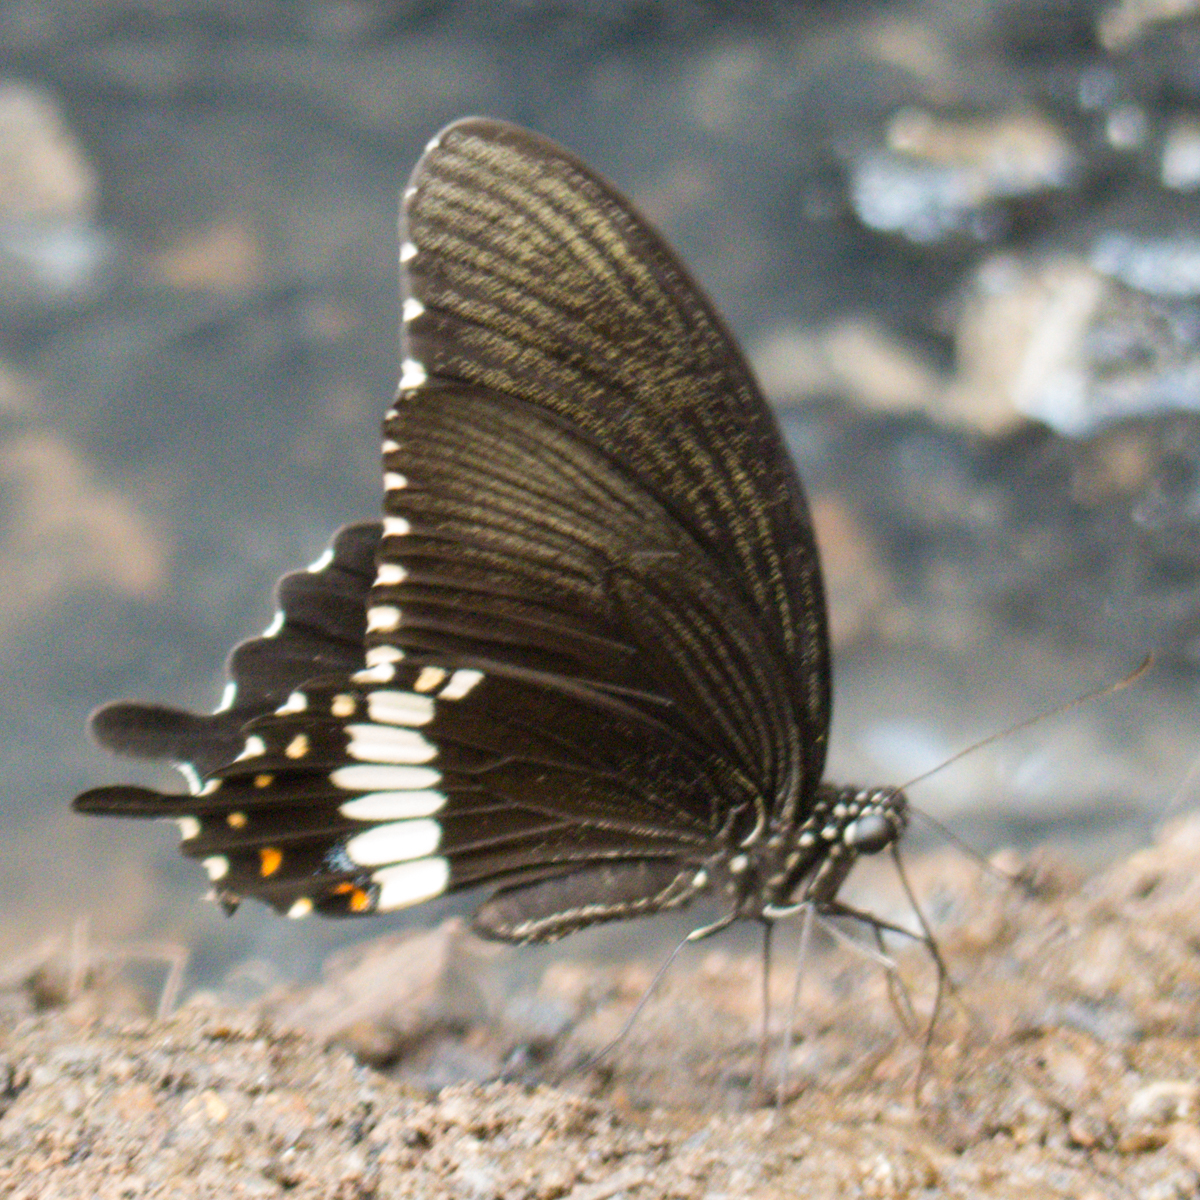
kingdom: Animalia
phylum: Arthropoda
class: Insecta
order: Lepidoptera
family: Papilionidae
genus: Papilio
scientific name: Papilio polytes
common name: Common mormon
